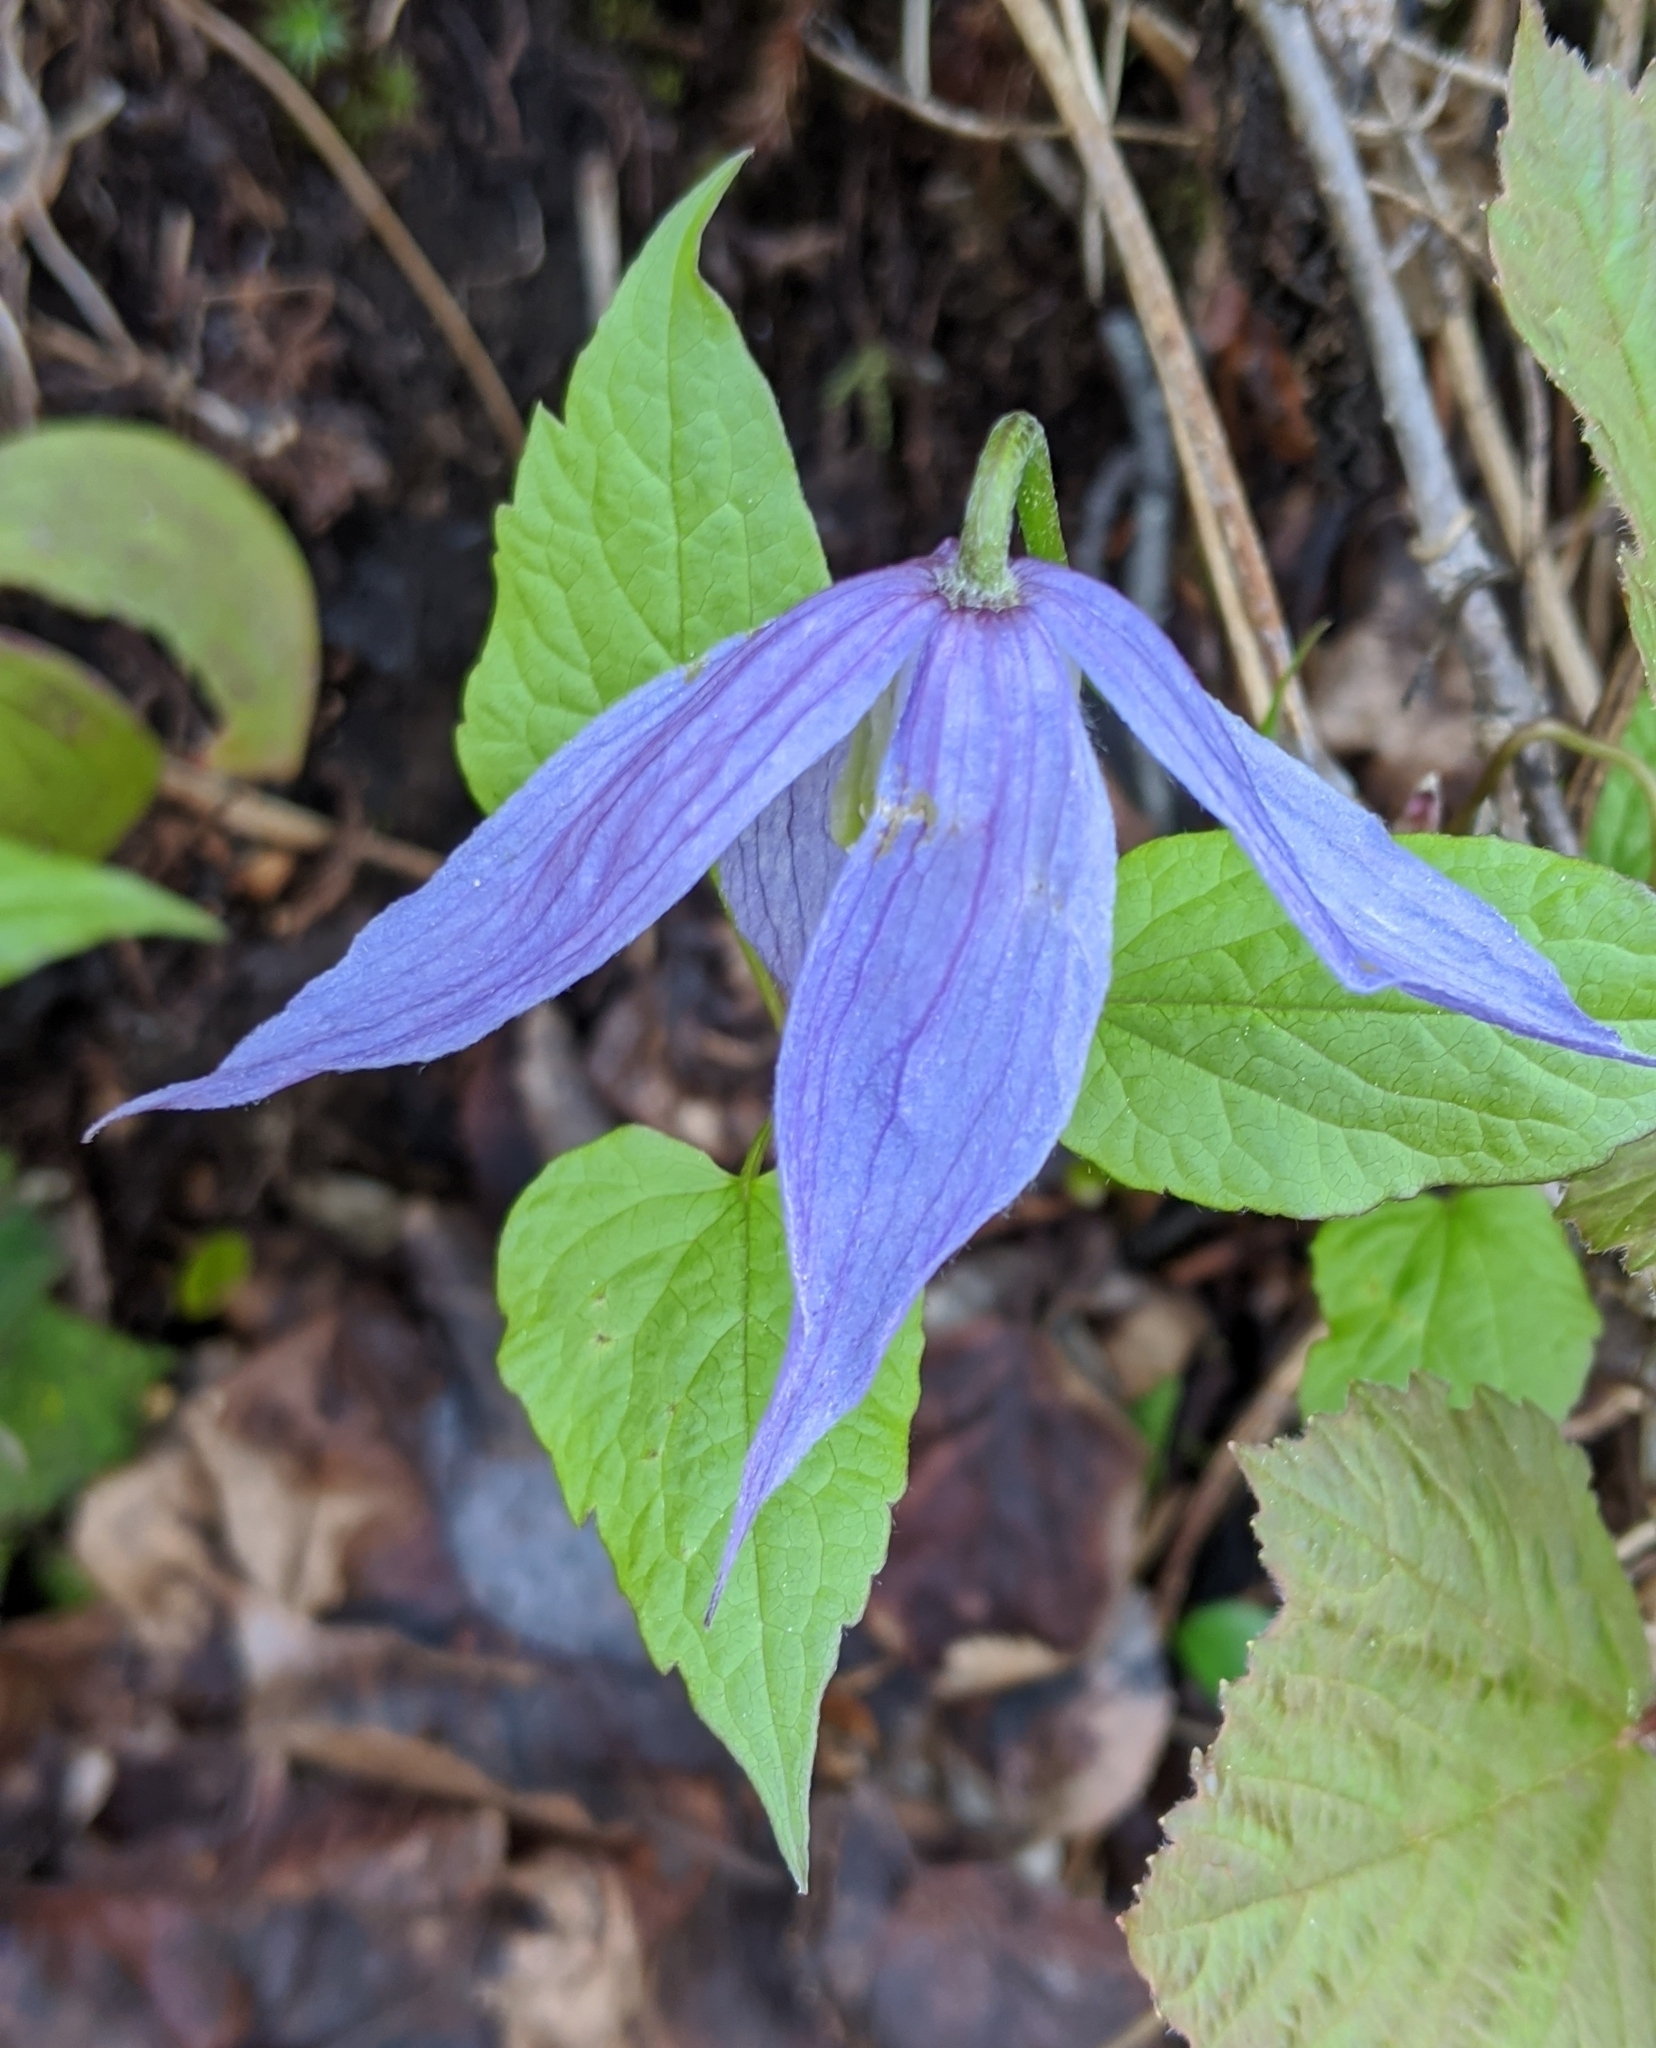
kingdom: Plantae
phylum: Tracheophyta
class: Magnoliopsida
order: Ranunculales
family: Ranunculaceae
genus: Clematis
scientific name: Clematis occidentalis
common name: Purple clematis
